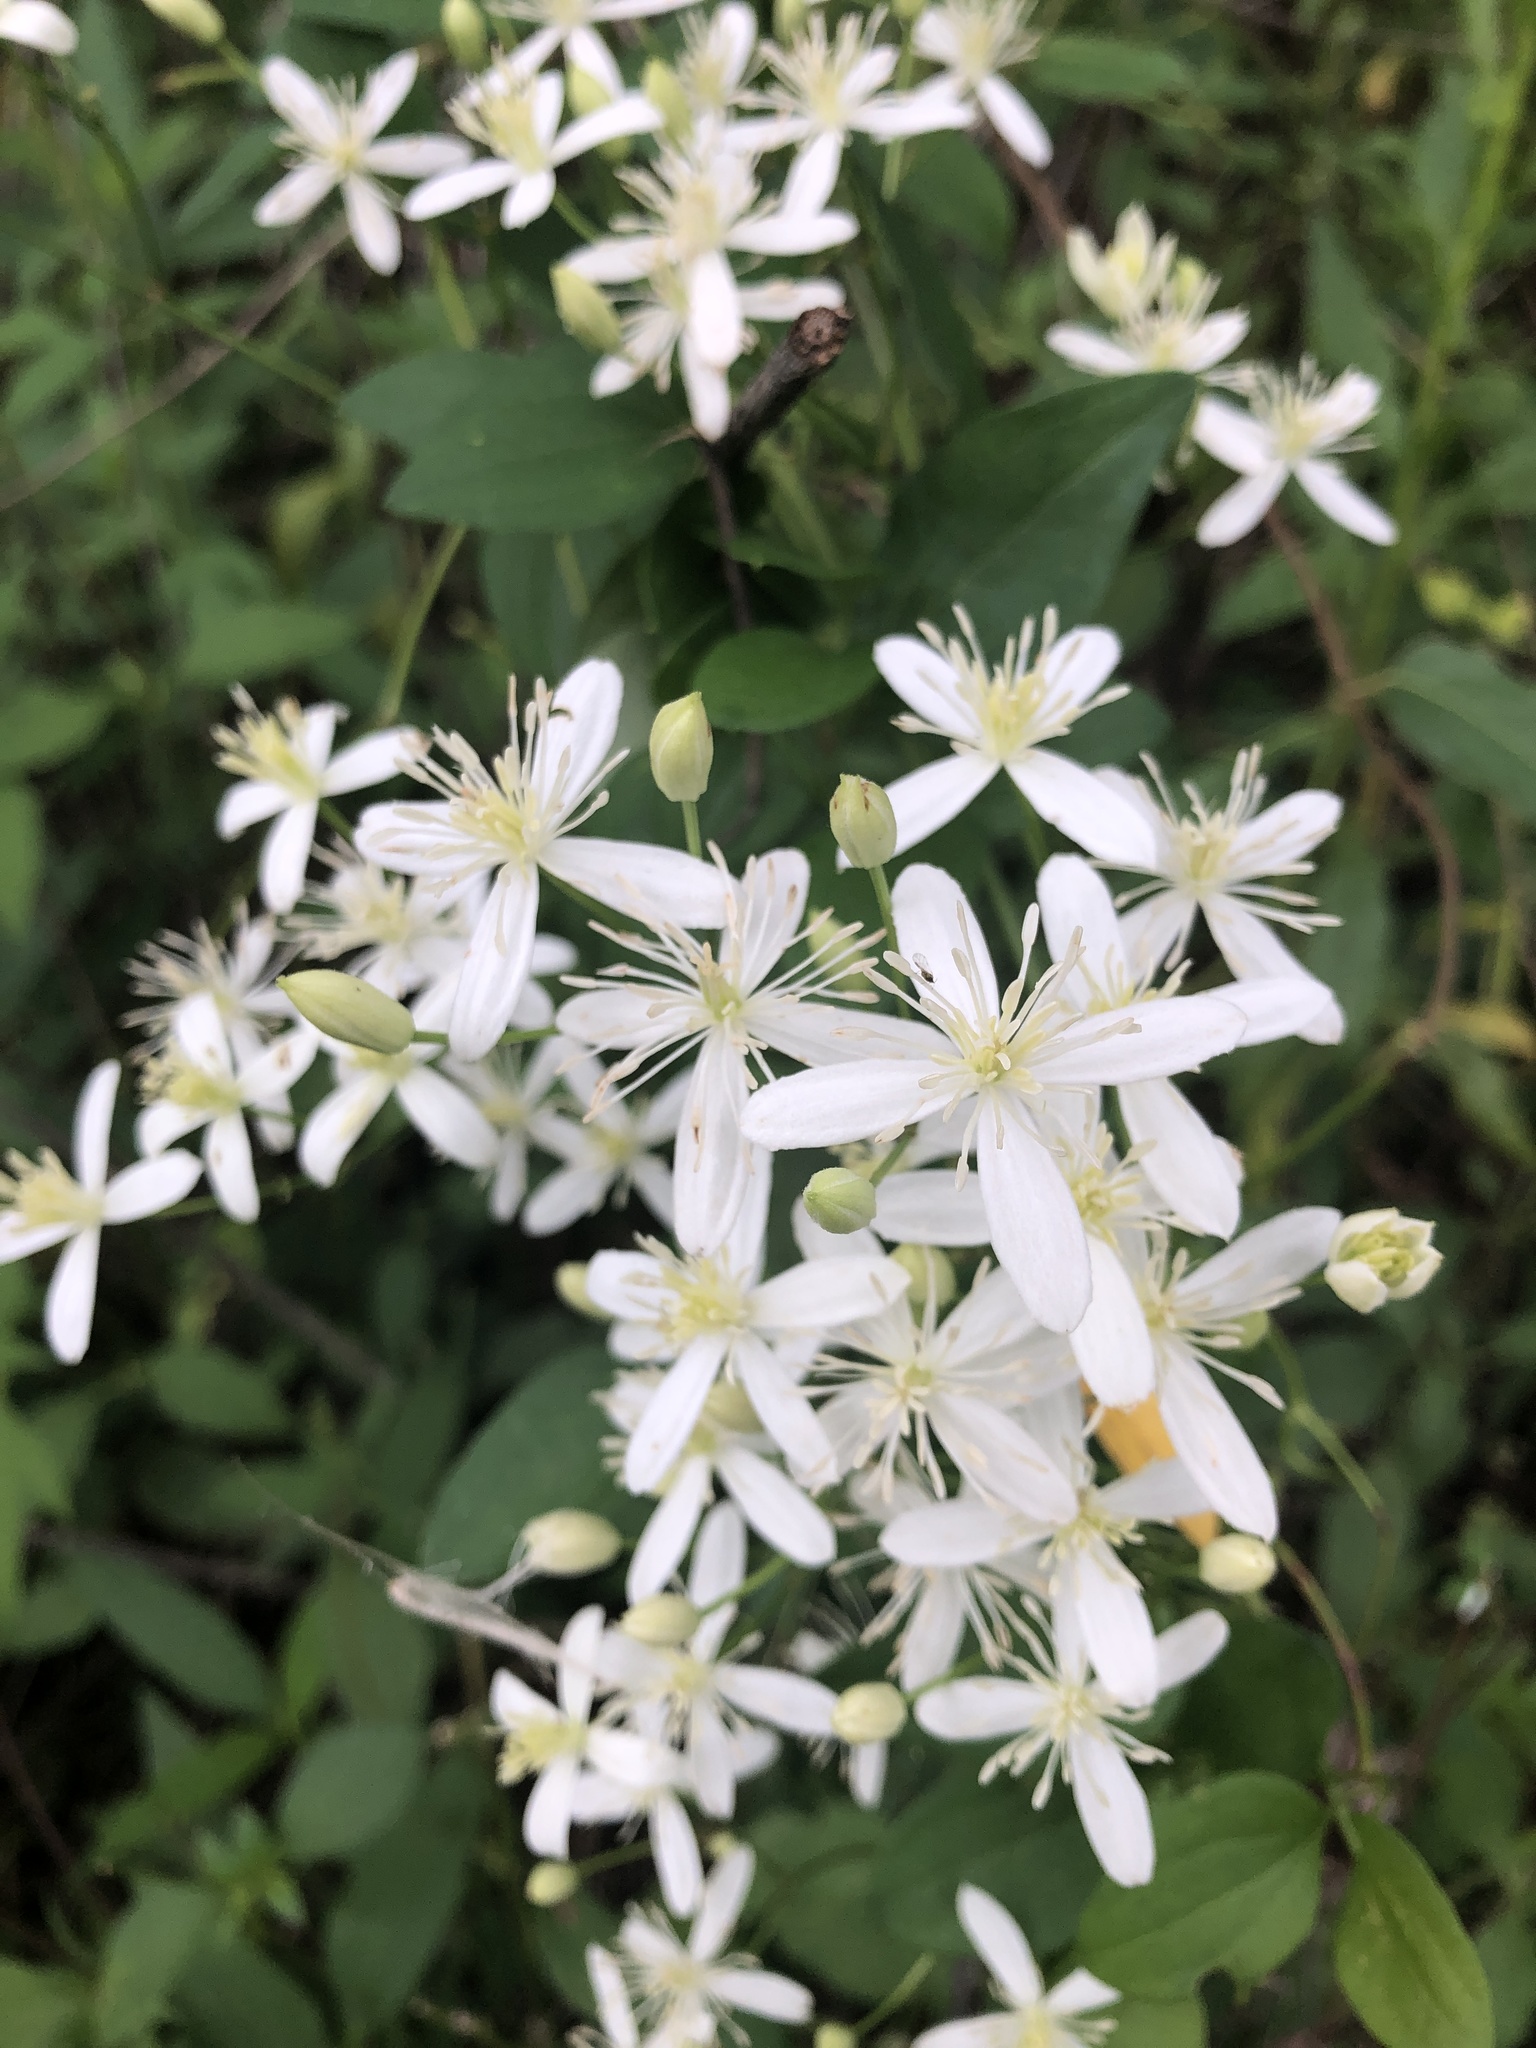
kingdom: Plantae
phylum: Tracheophyta
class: Magnoliopsida
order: Ranunculales
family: Ranunculaceae
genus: Clematis
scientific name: Clematis terniflora
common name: Sweet autumn clematis
